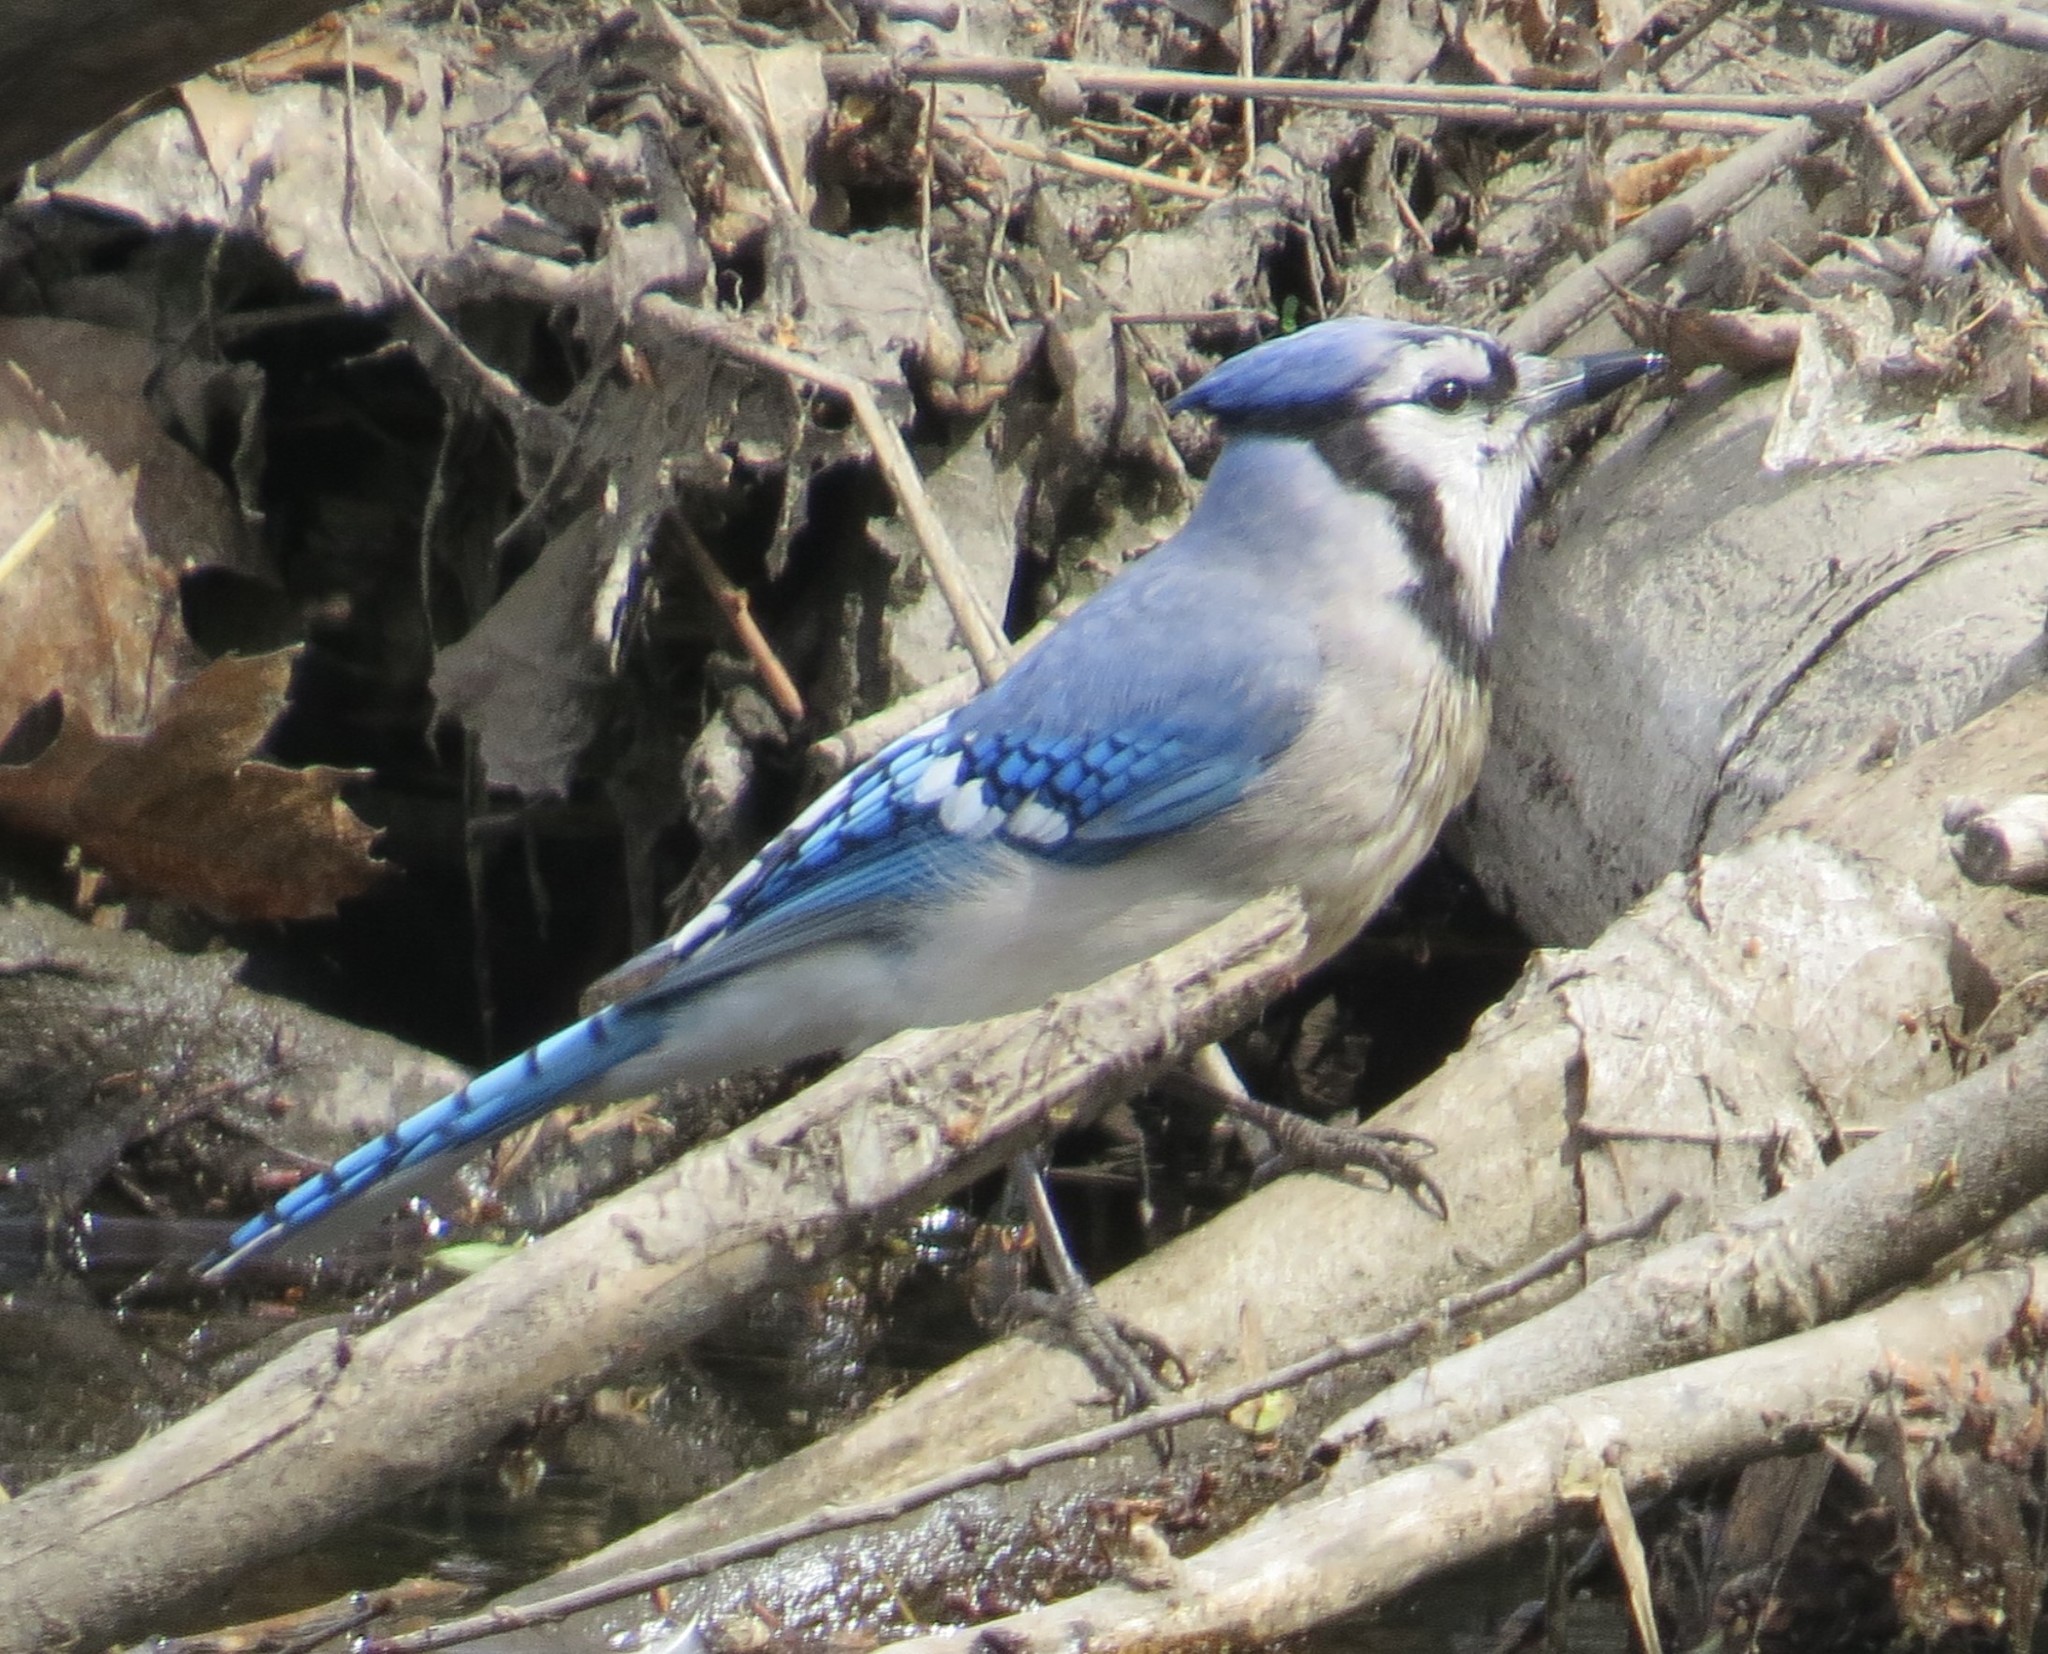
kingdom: Animalia
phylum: Chordata
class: Aves
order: Passeriformes
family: Corvidae
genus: Cyanocitta
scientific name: Cyanocitta cristata
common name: Blue jay
